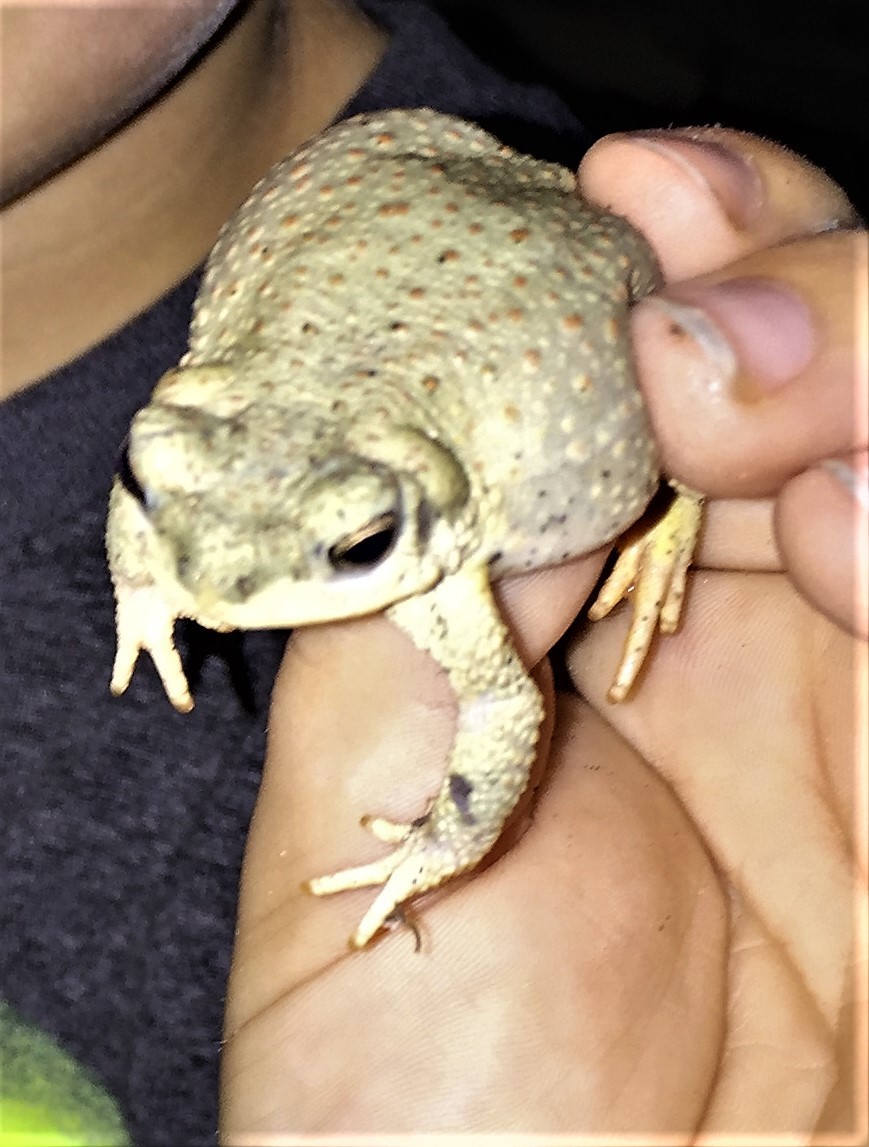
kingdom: Animalia
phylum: Chordata
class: Amphibia
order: Anura
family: Bufonidae
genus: Anaxyrus
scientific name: Anaxyrus punctatus
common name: Red-spotted toad
